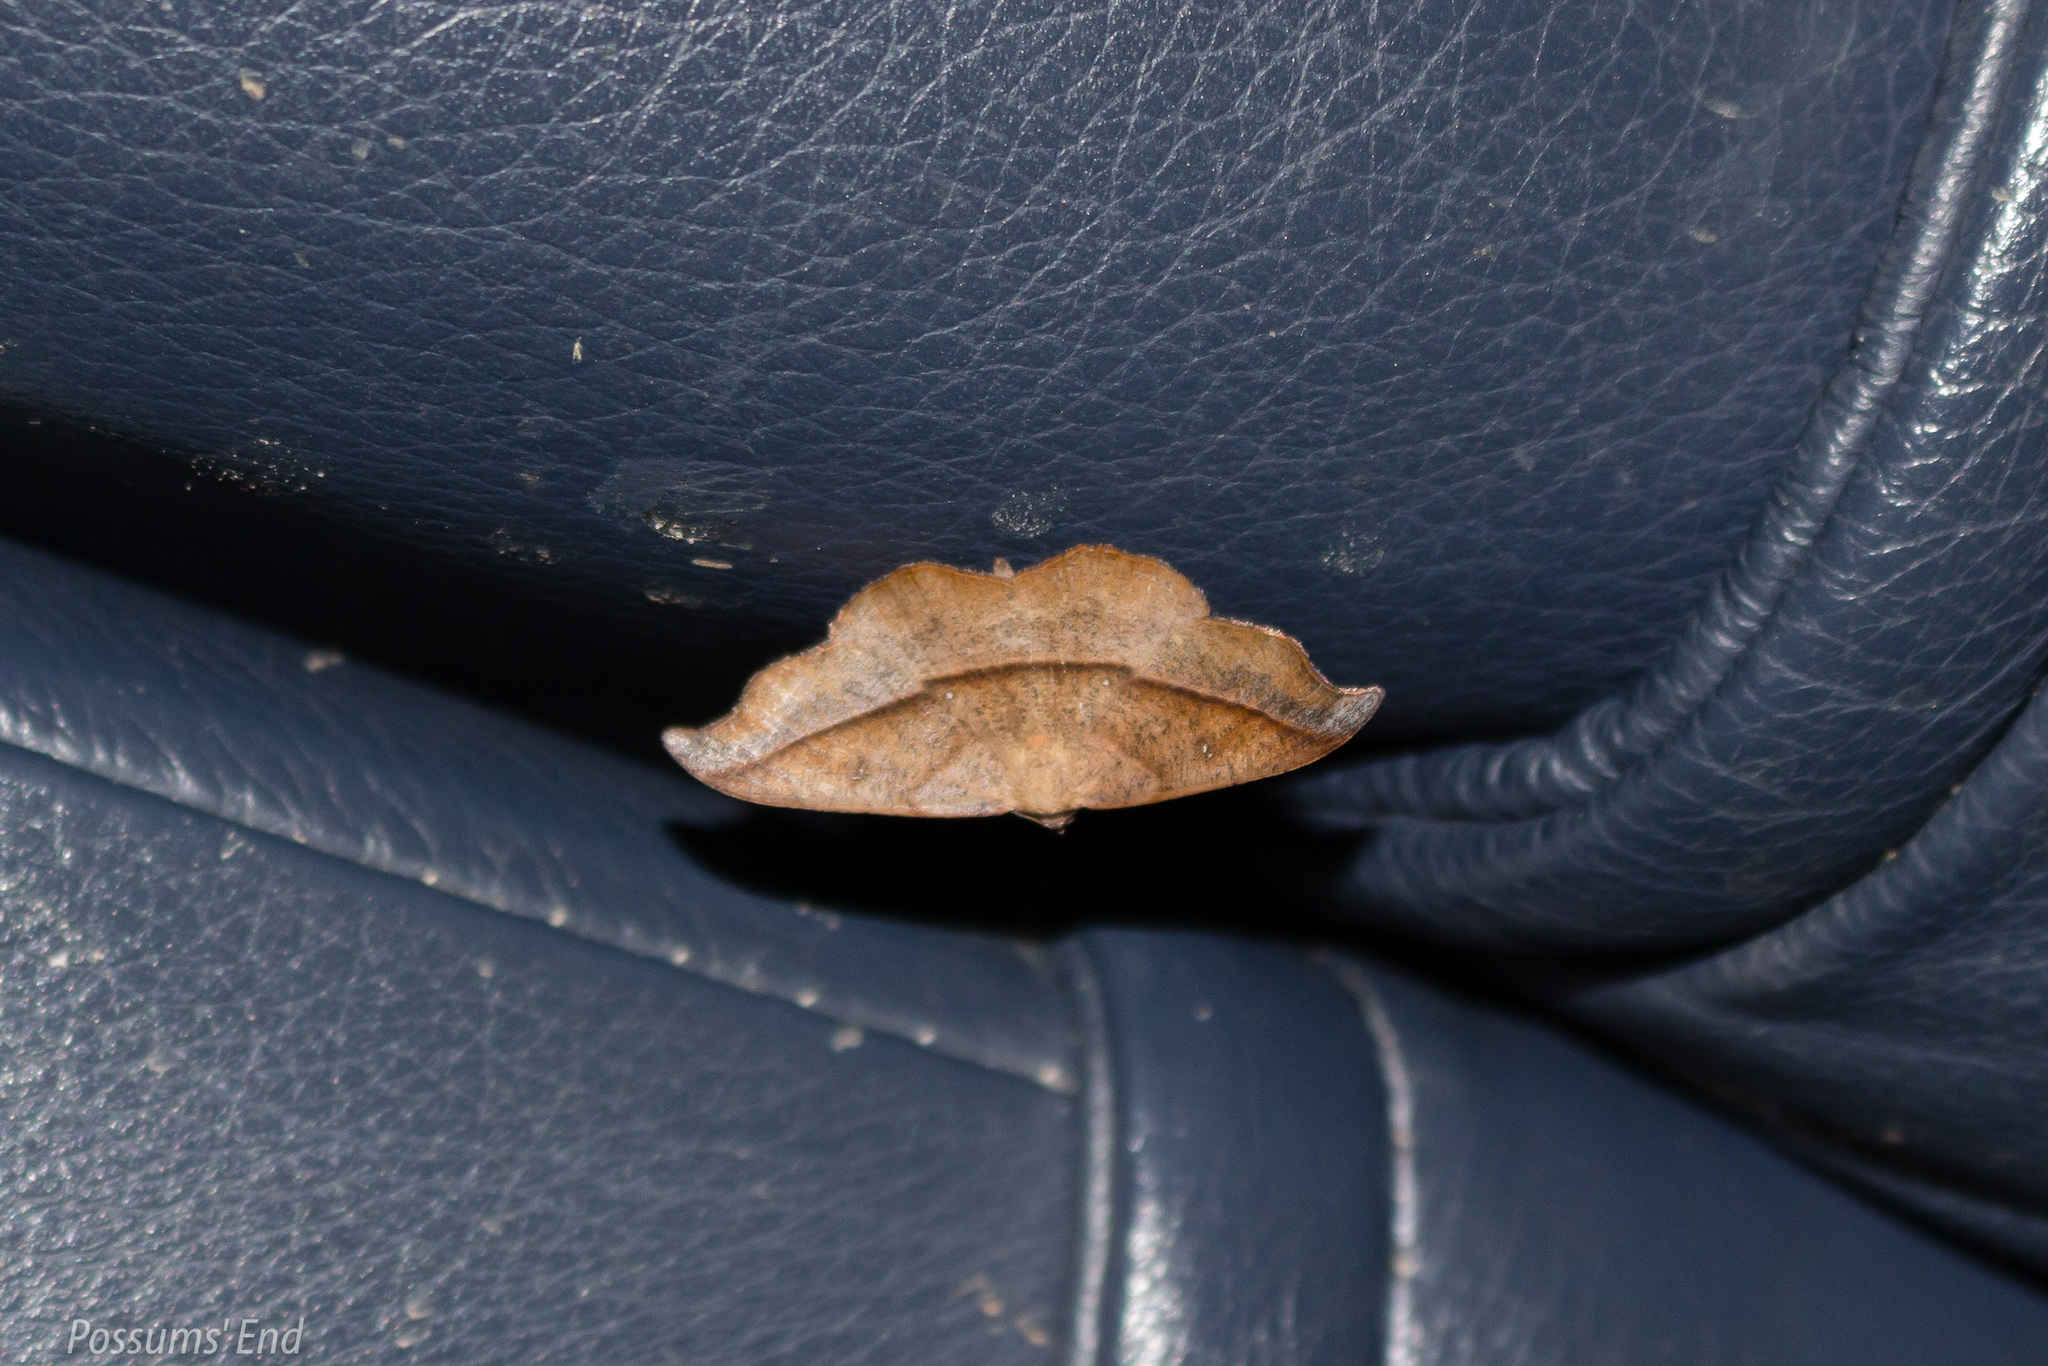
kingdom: Animalia
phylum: Arthropoda
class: Insecta
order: Lepidoptera
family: Geometridae
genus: Sarisa
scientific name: Sarisa muriferata
